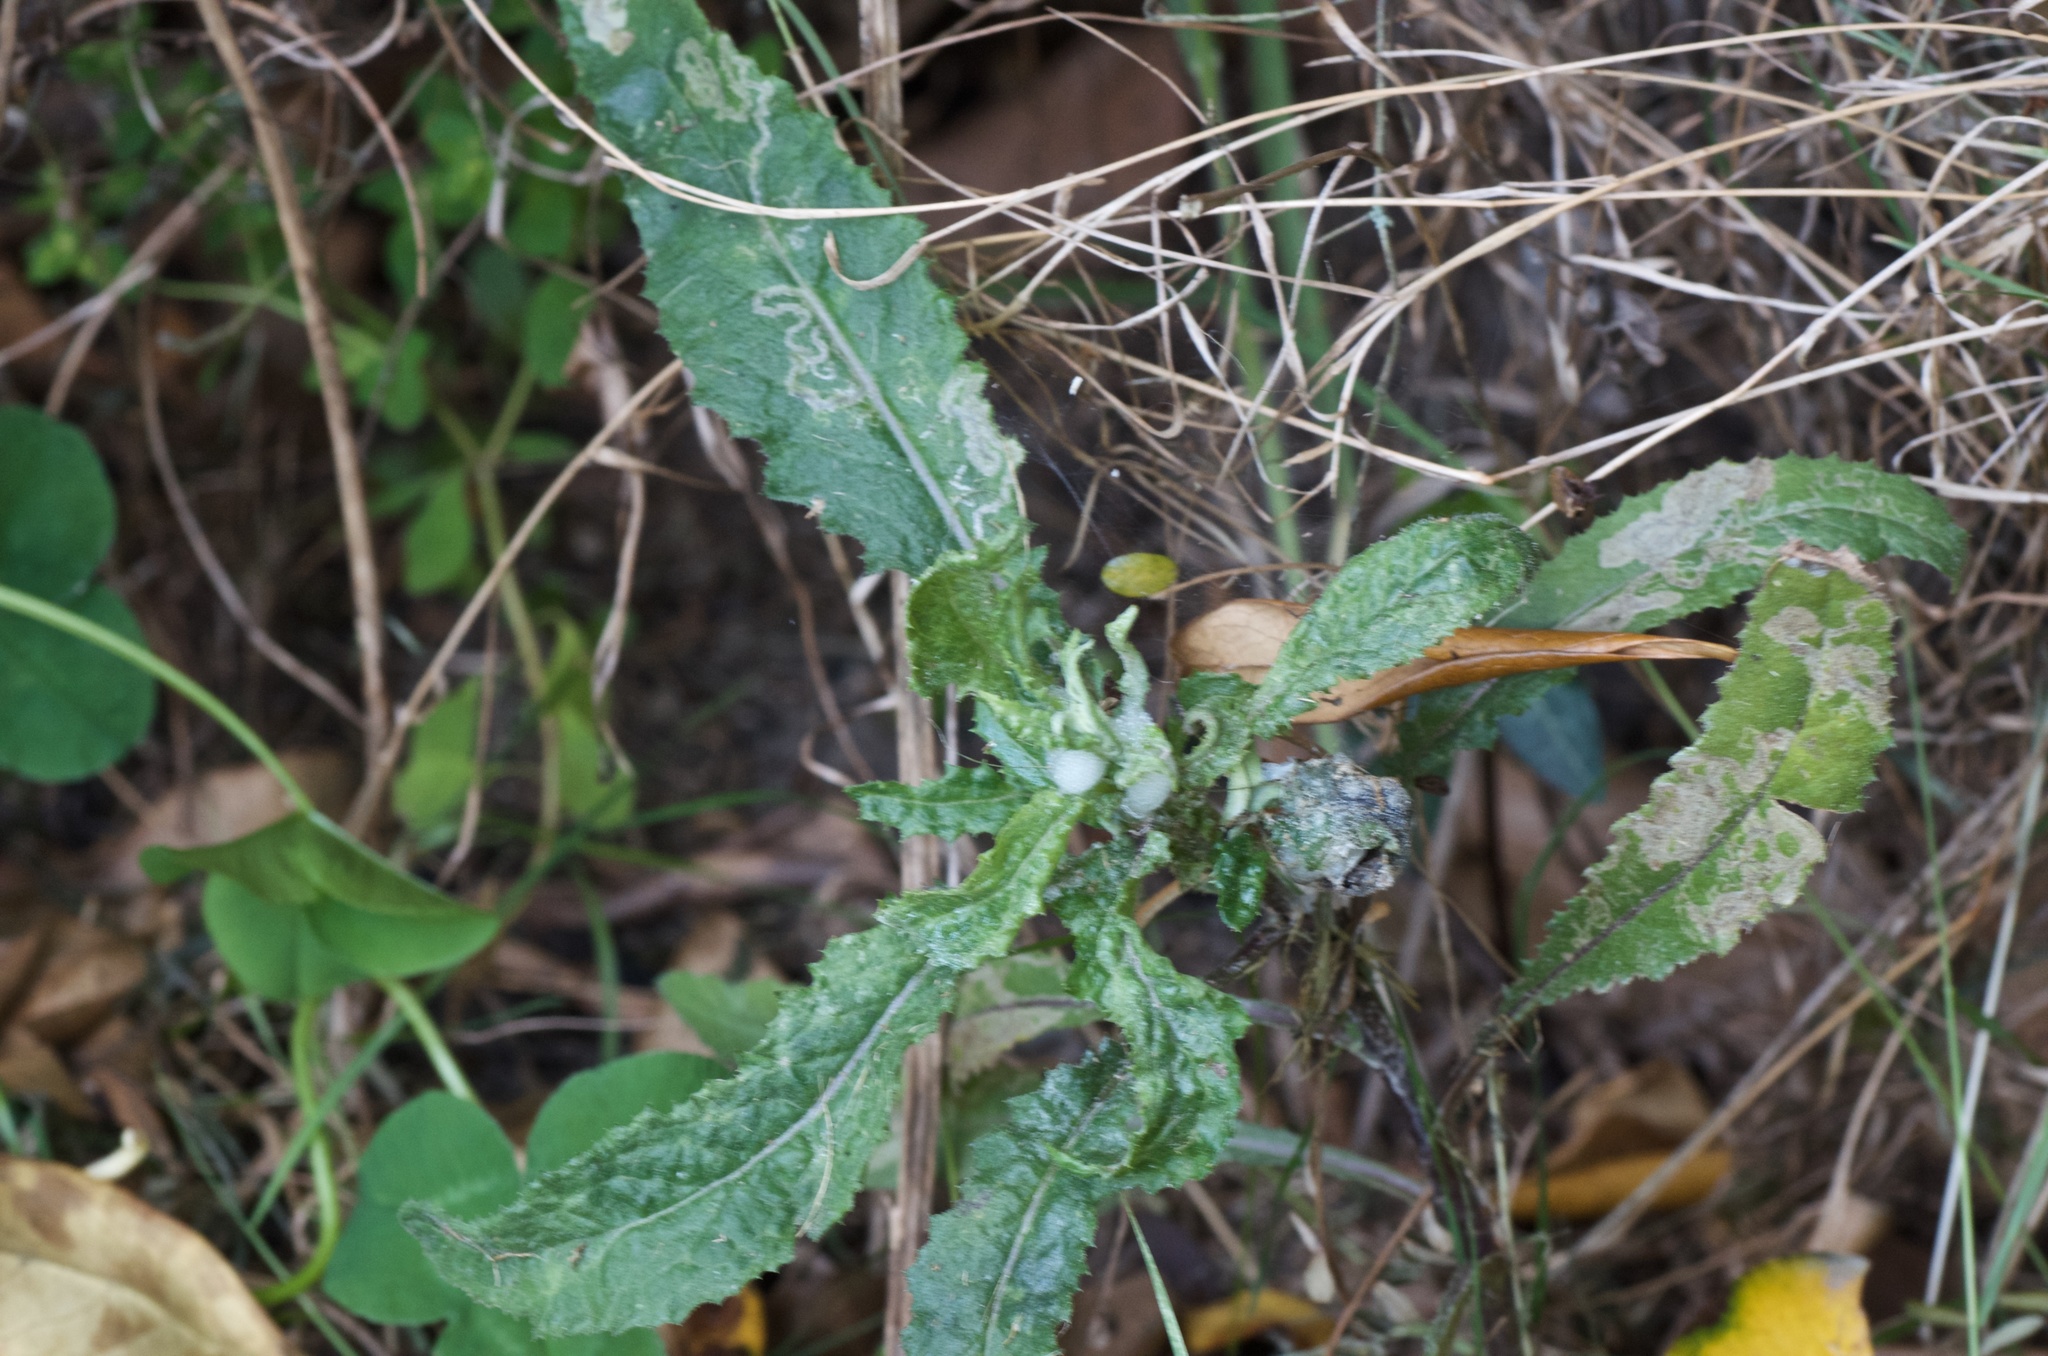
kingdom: Plantae
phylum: Tracheophyta
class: Magnoliopsida
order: Asterales
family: Asteraceae
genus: Senecio
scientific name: Senecio minimus
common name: Toothed fireweed
